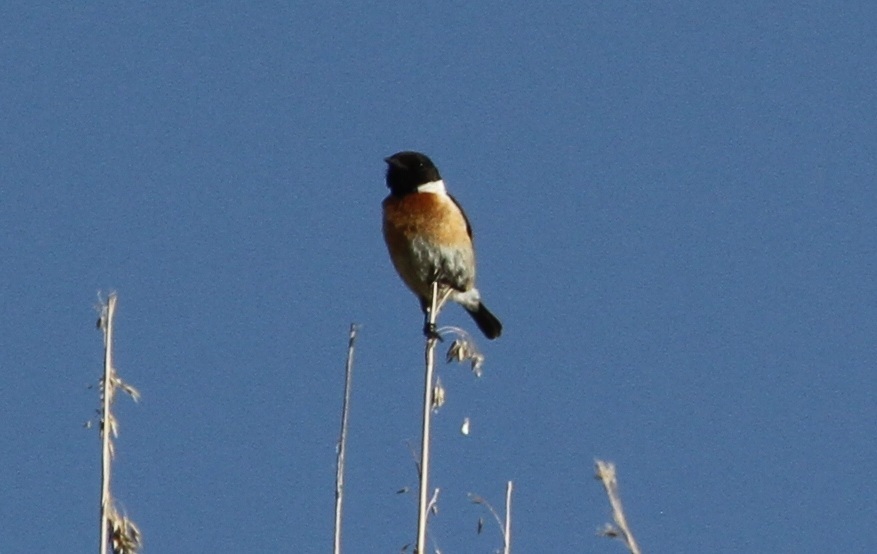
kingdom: Animalia
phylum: Chordata
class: Aves
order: Passeriformes
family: Muscicapidae
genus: Saxicola
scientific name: Saxicola rubicola
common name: European stonechat
